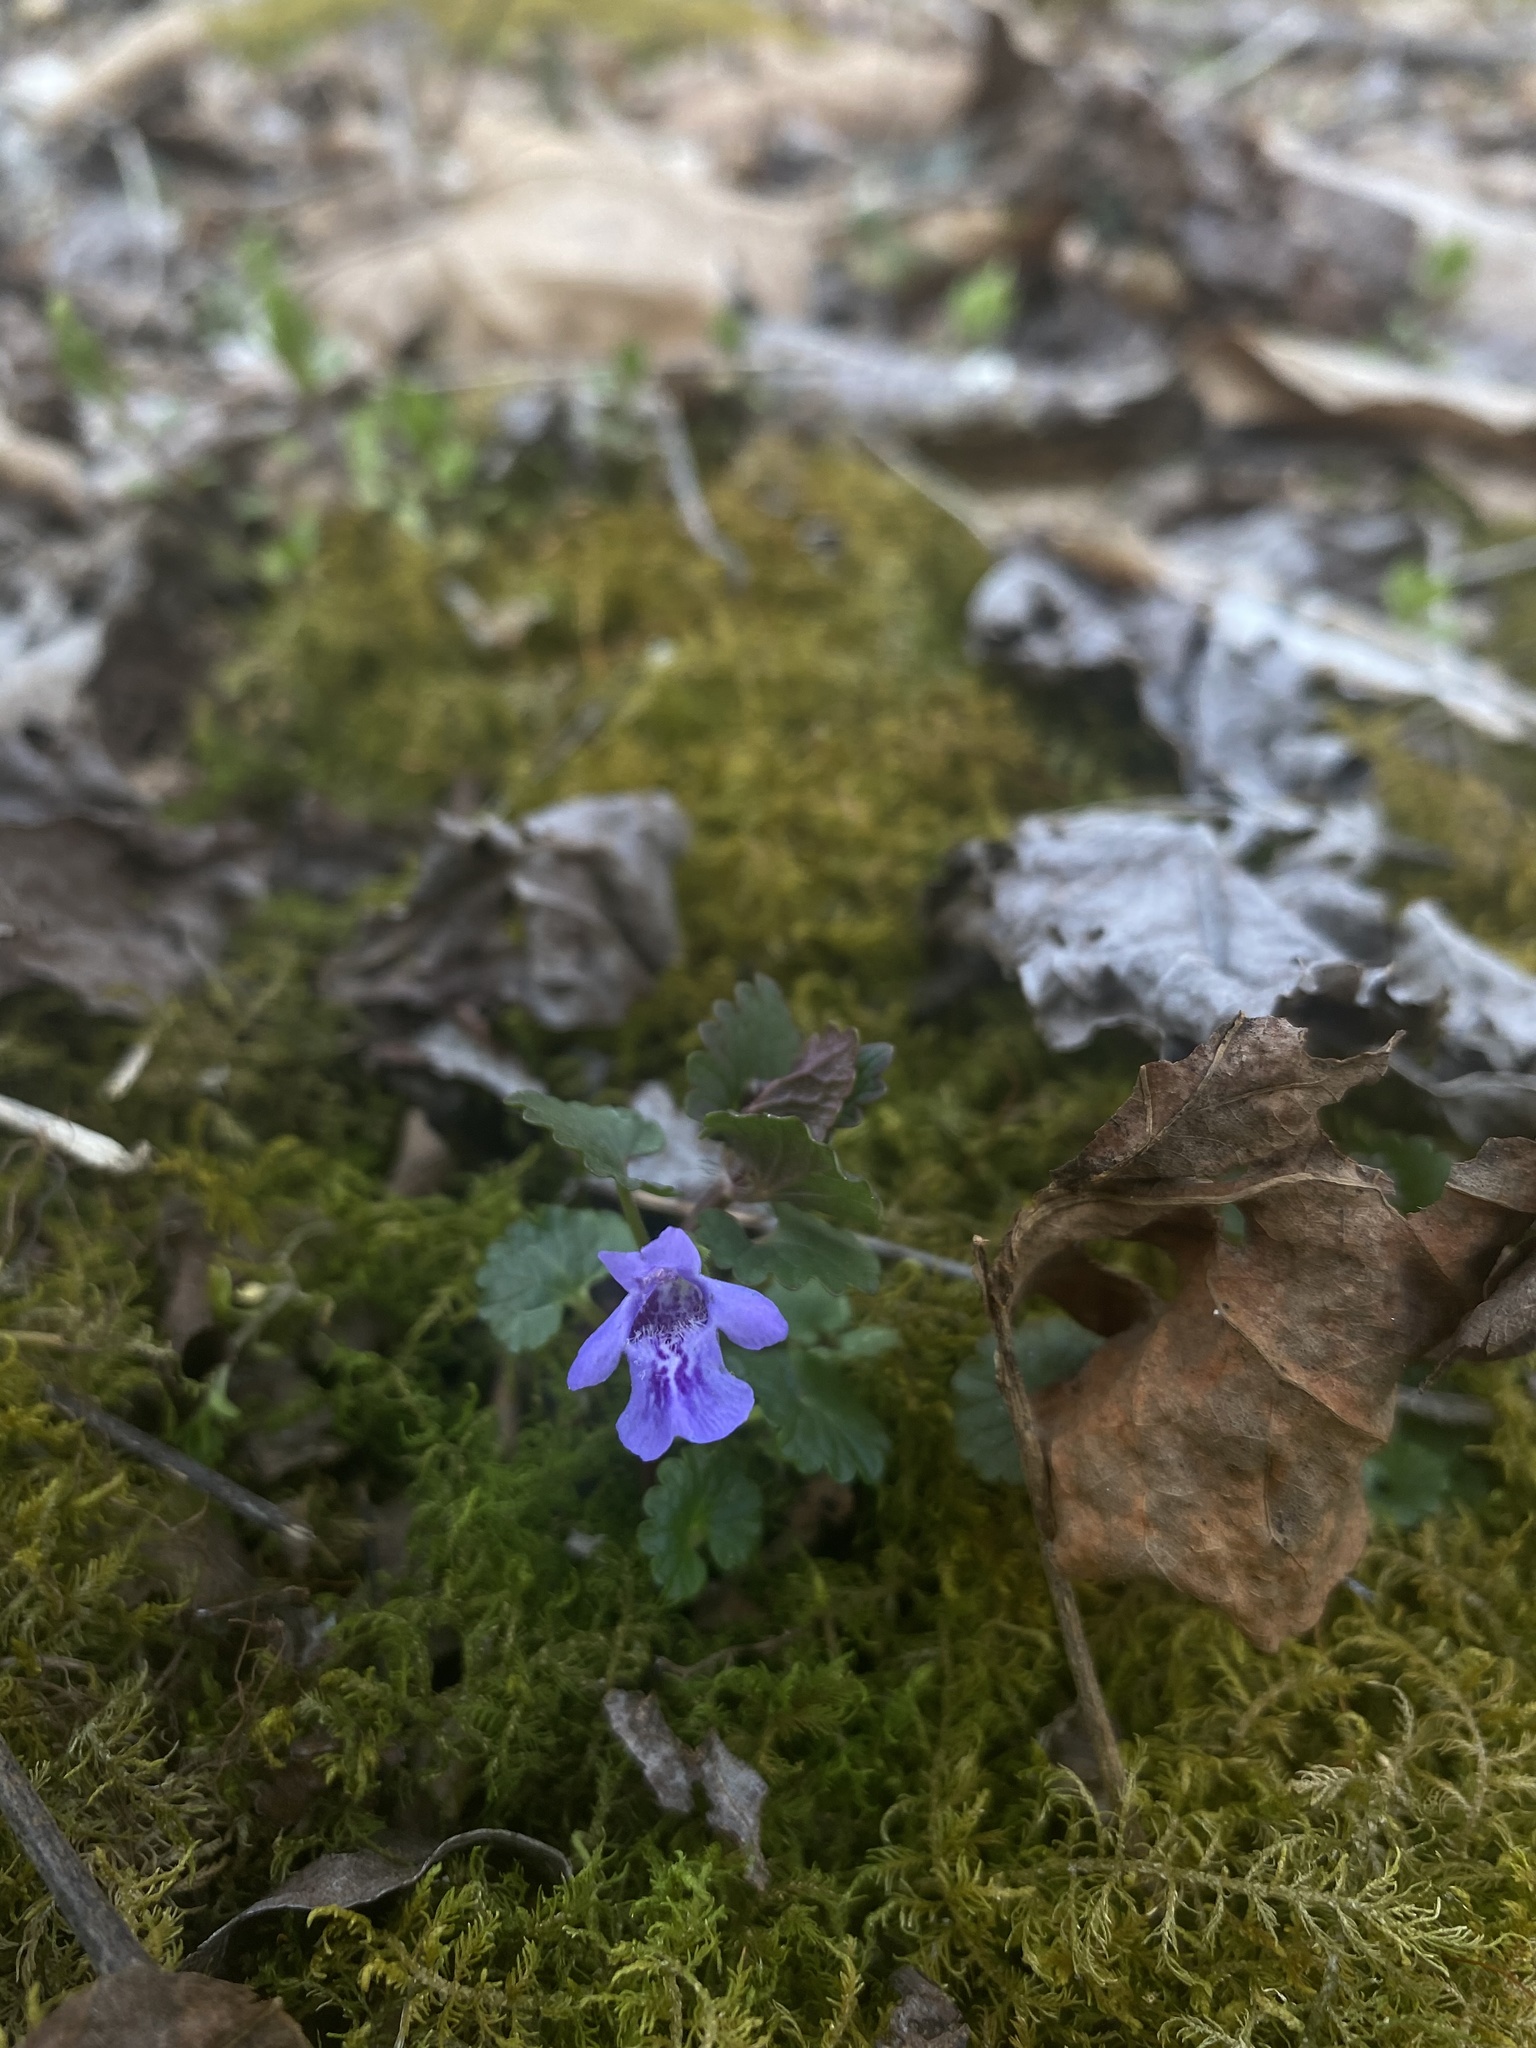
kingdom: Plantae
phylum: Tracheophyta
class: Magnoliopsida
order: Lamiales
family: Lamiaceae
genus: Glechoma
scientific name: Glechoma hederacea
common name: Ground ivy
